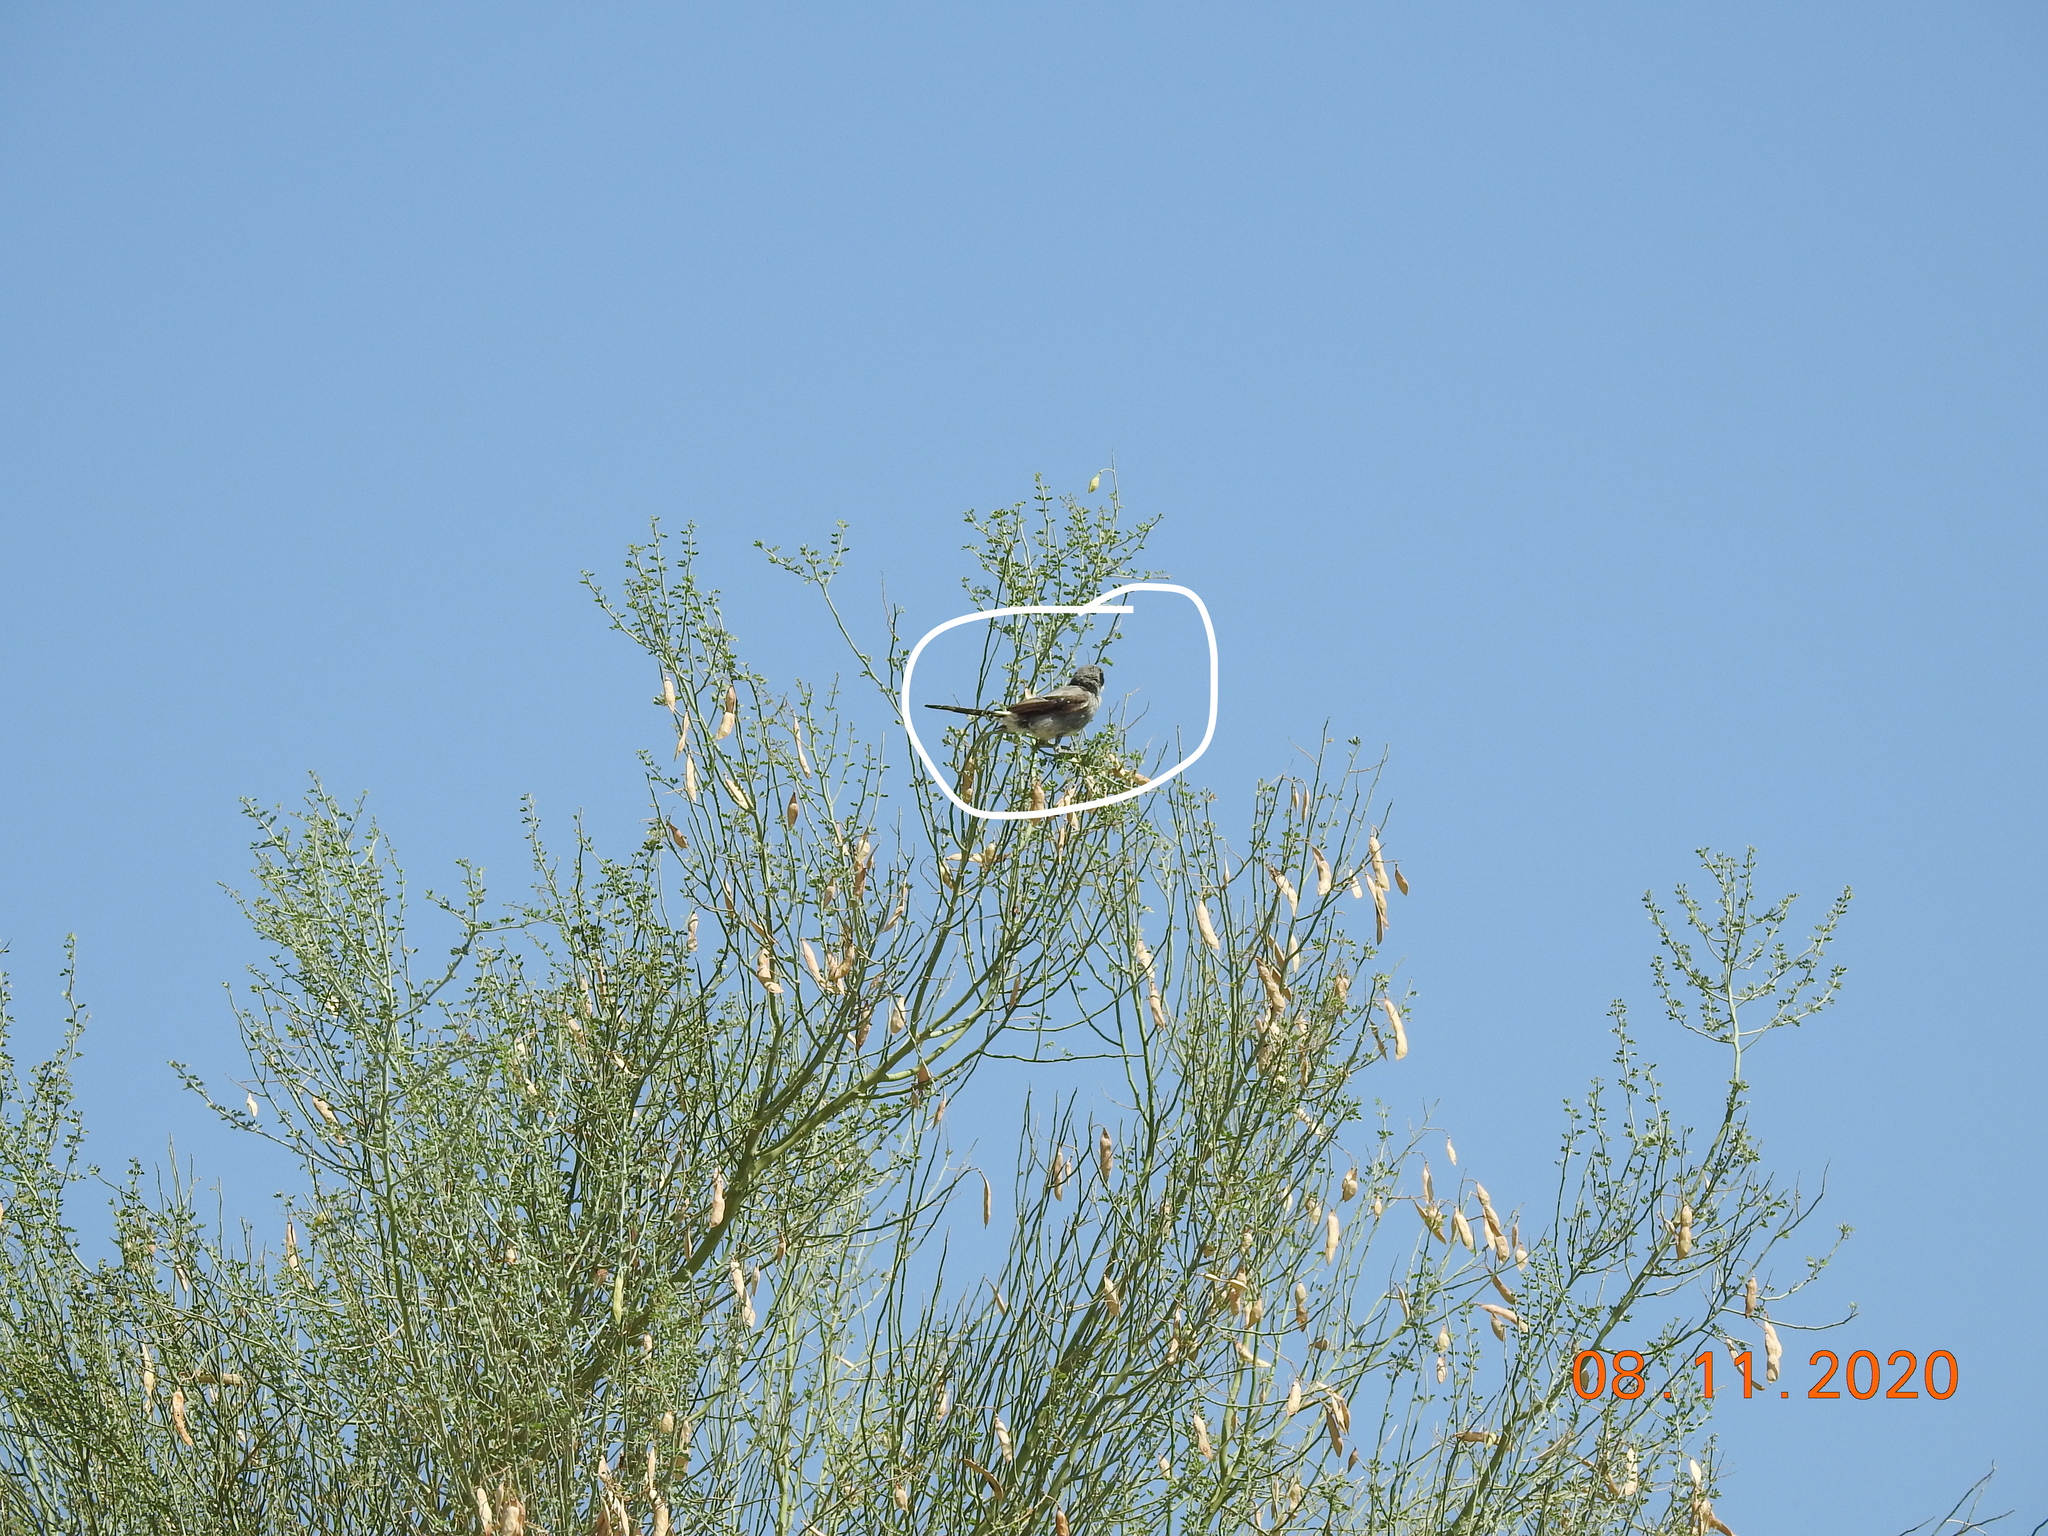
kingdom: Animalia
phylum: Chordata
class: Aves
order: Passeriformes
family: Laniidae
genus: Lanius
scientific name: Lanius ludovicianus
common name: Loggerhead shrike
